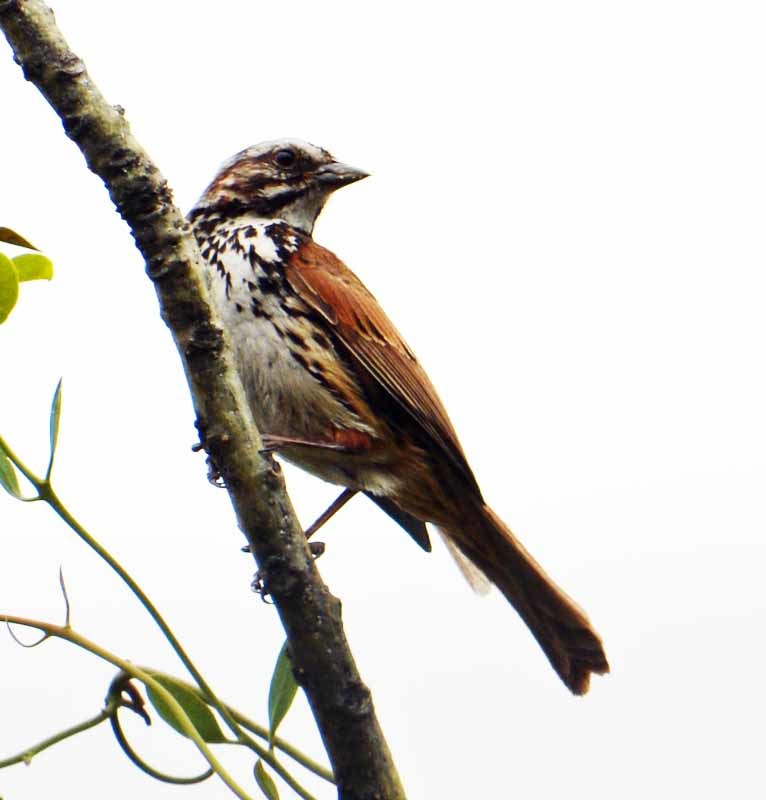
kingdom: Animalia
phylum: Chordata
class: Aves
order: Passeriformes
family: Passerellidae
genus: Melospiza
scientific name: Melospiza melodia
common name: Song sparrow
